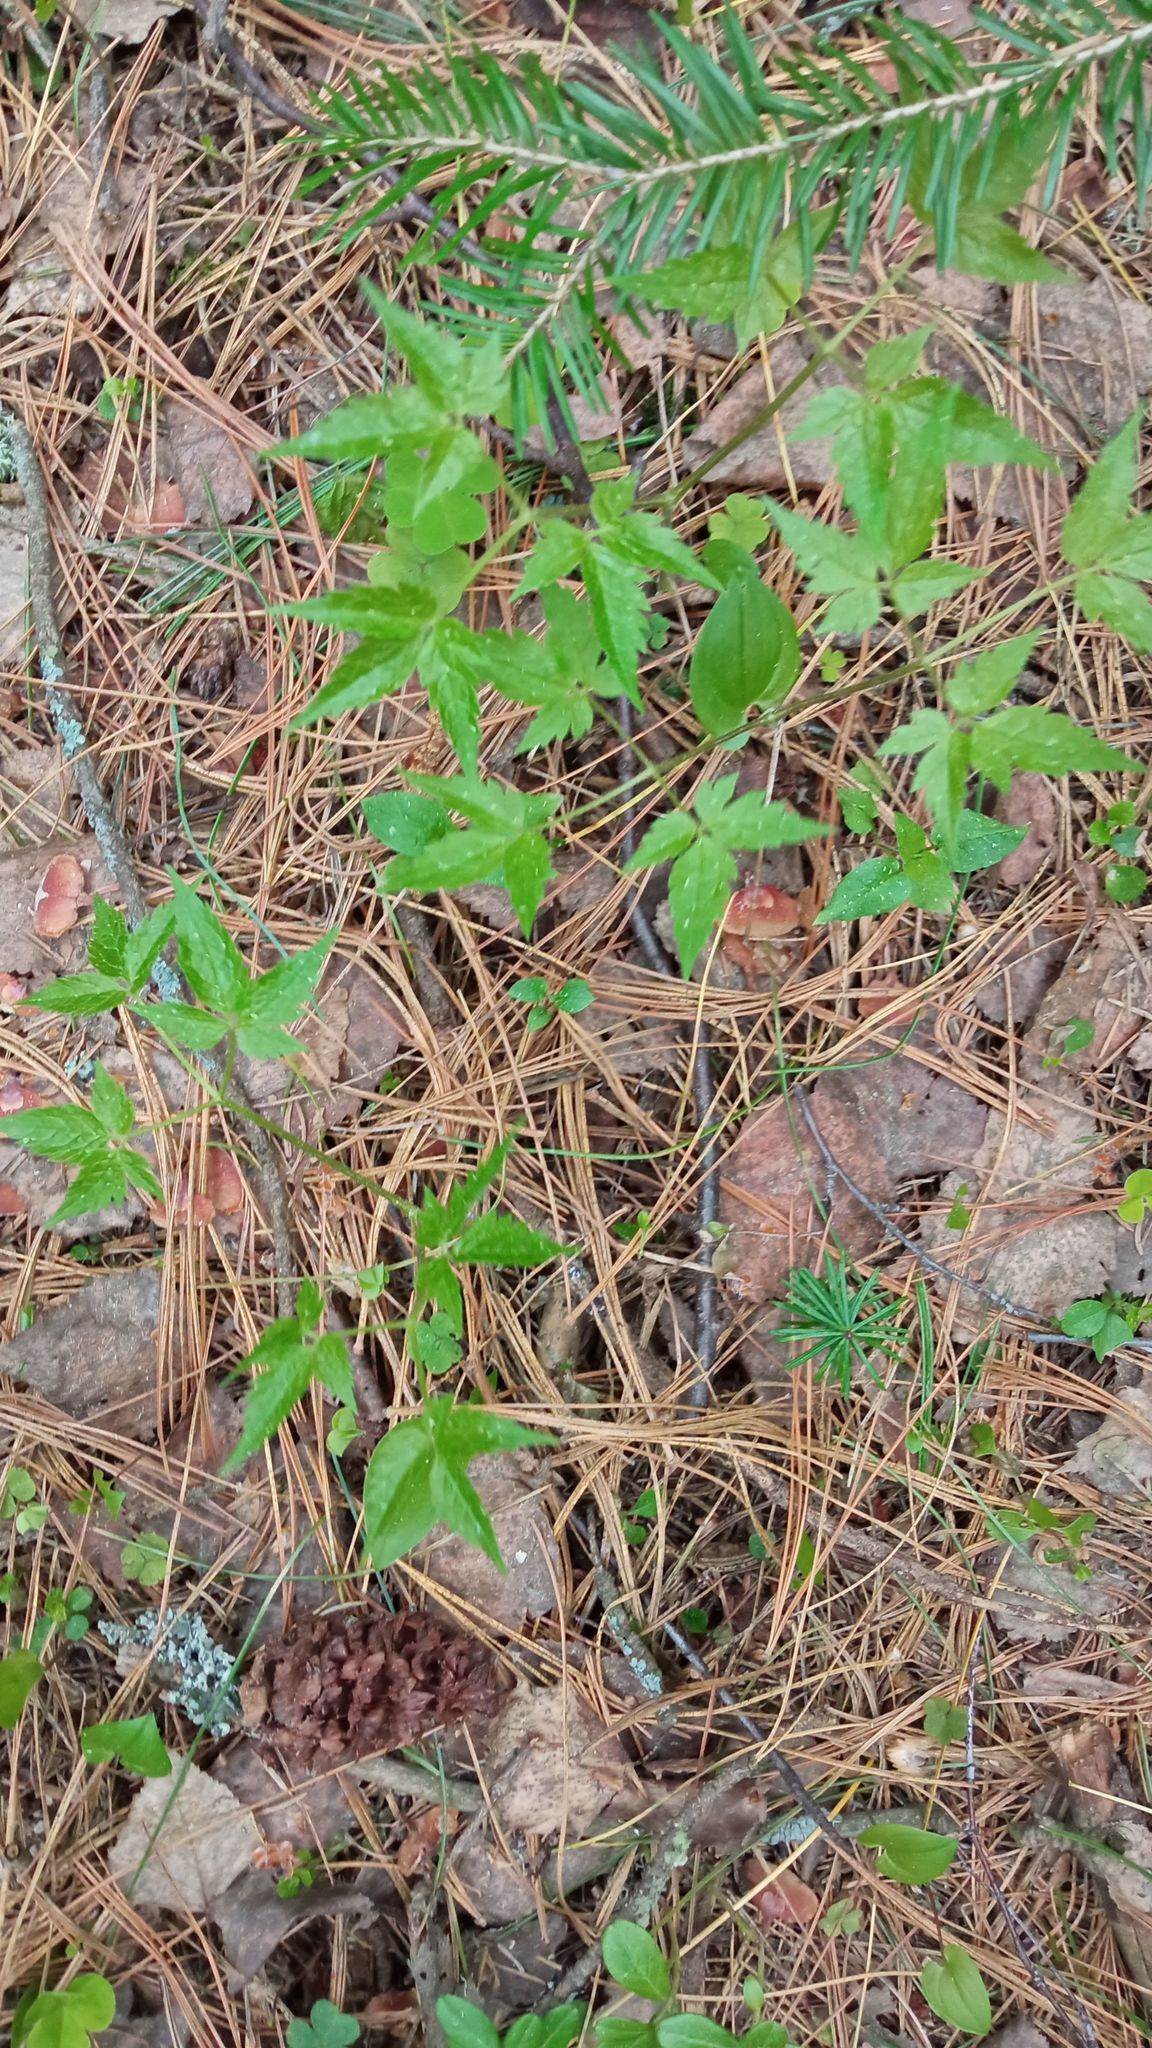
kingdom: Plantae
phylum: Tracheophyta
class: Magnoliopsida
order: Ranunculales
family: Ranunculaceae
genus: Clematis
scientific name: Clematis sibirica
